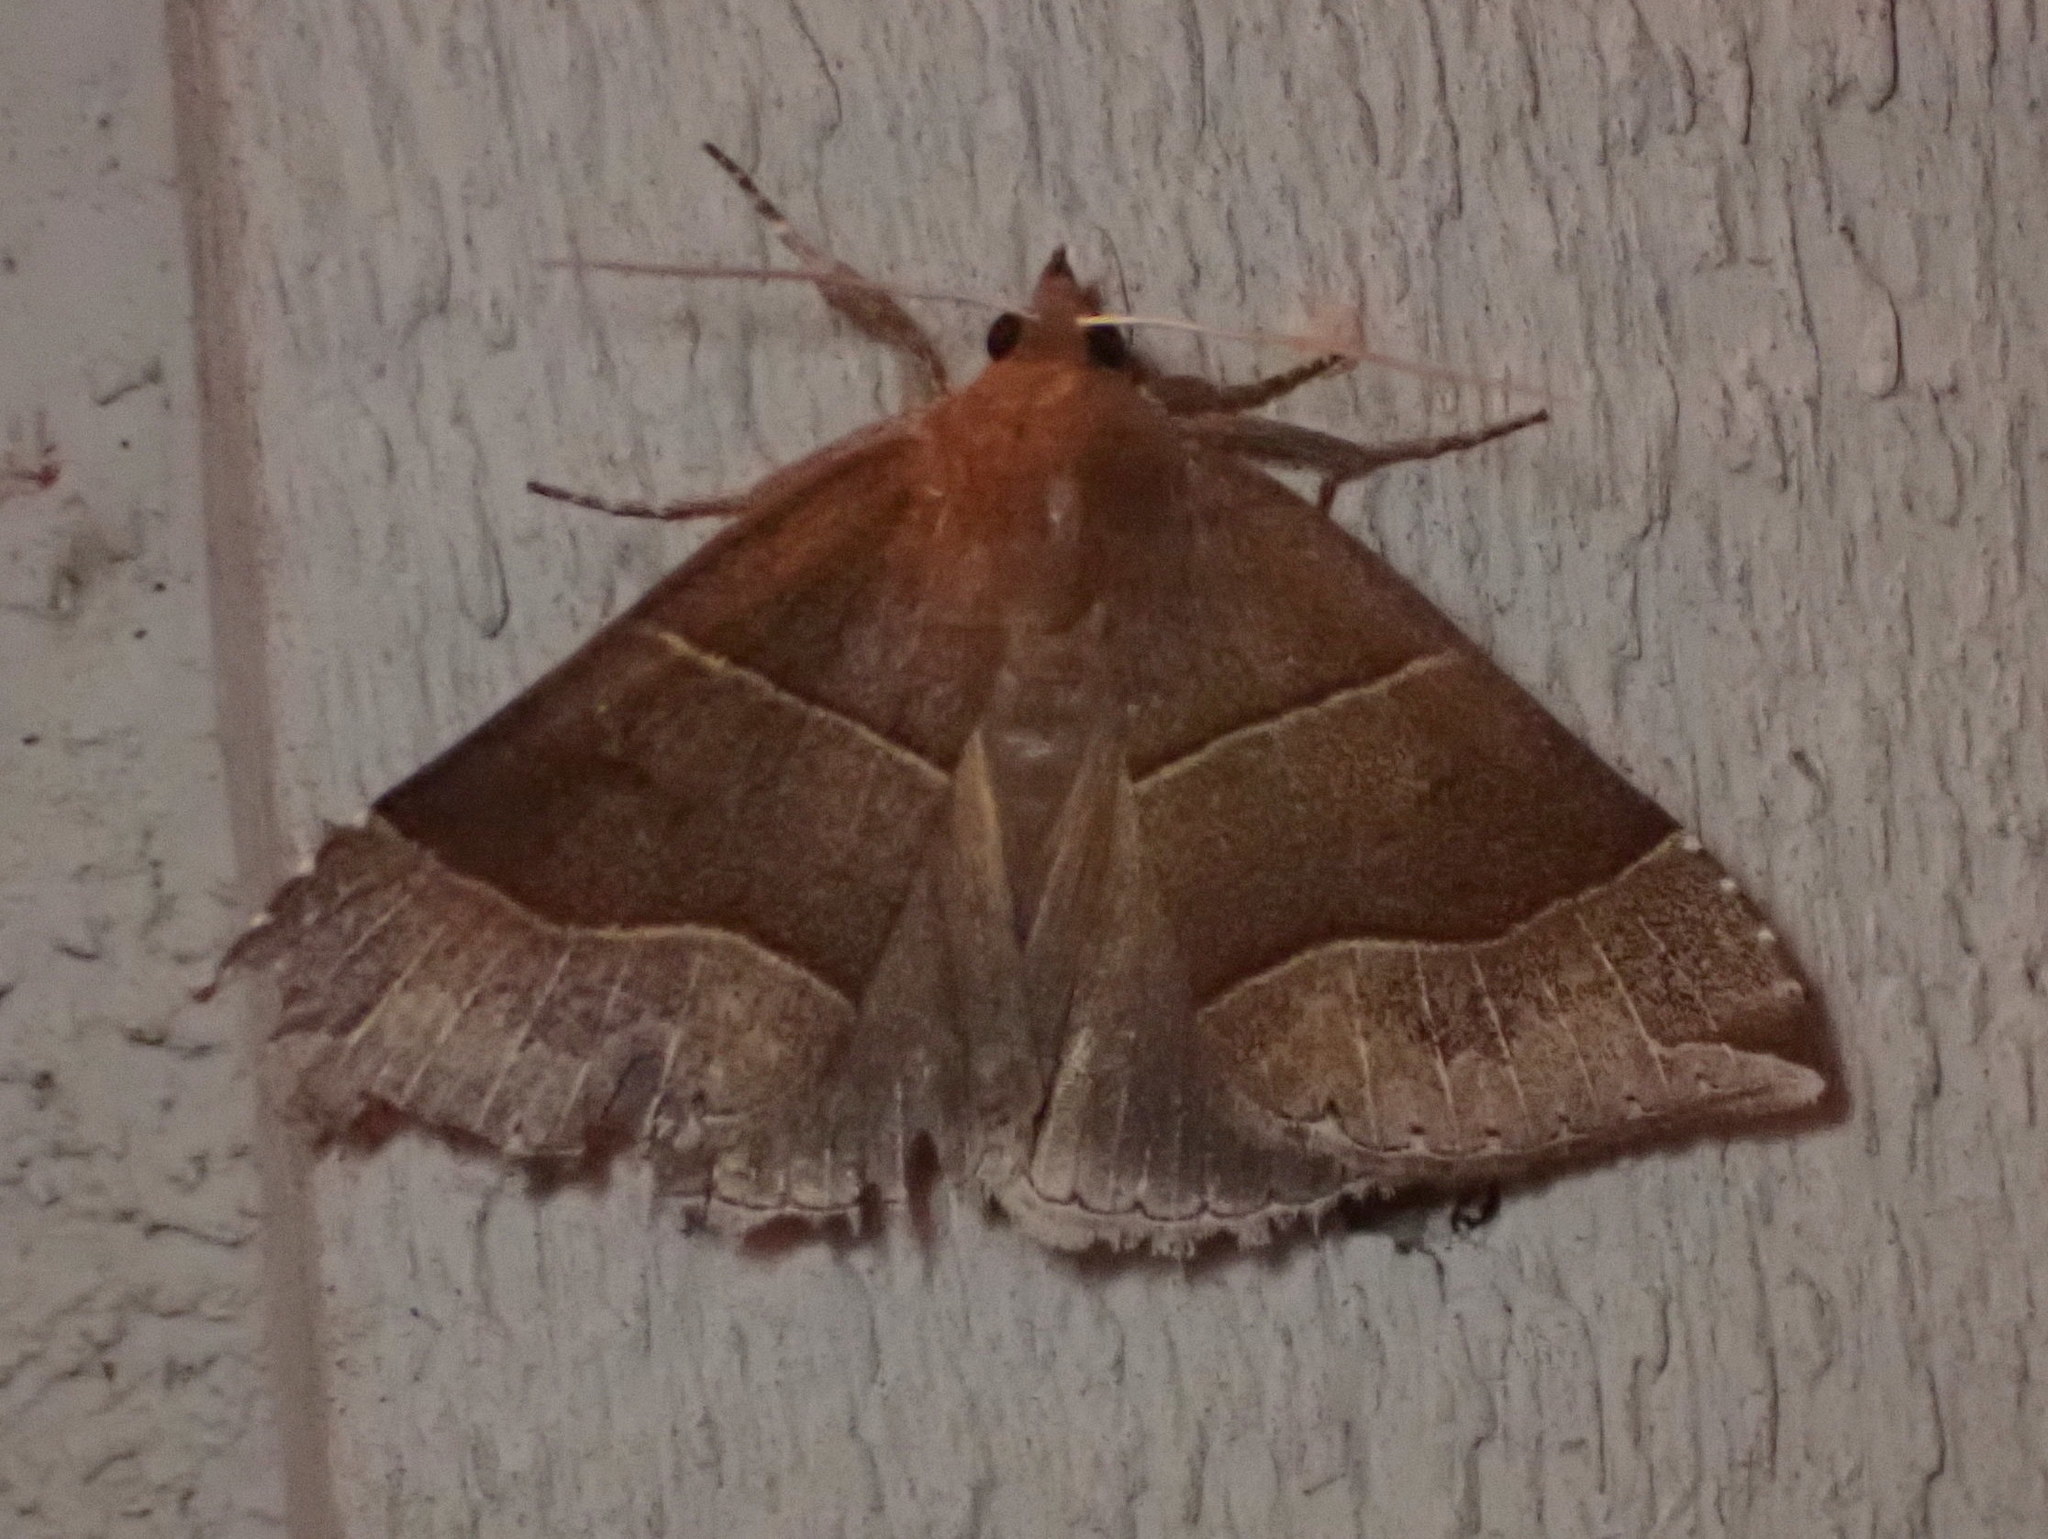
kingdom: Animalia
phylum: Arthropoda
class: Insecta
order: Lepidoptera
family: Erebidae
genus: Parallelia
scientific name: Parallelia bistriaris
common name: Maple looper moth
